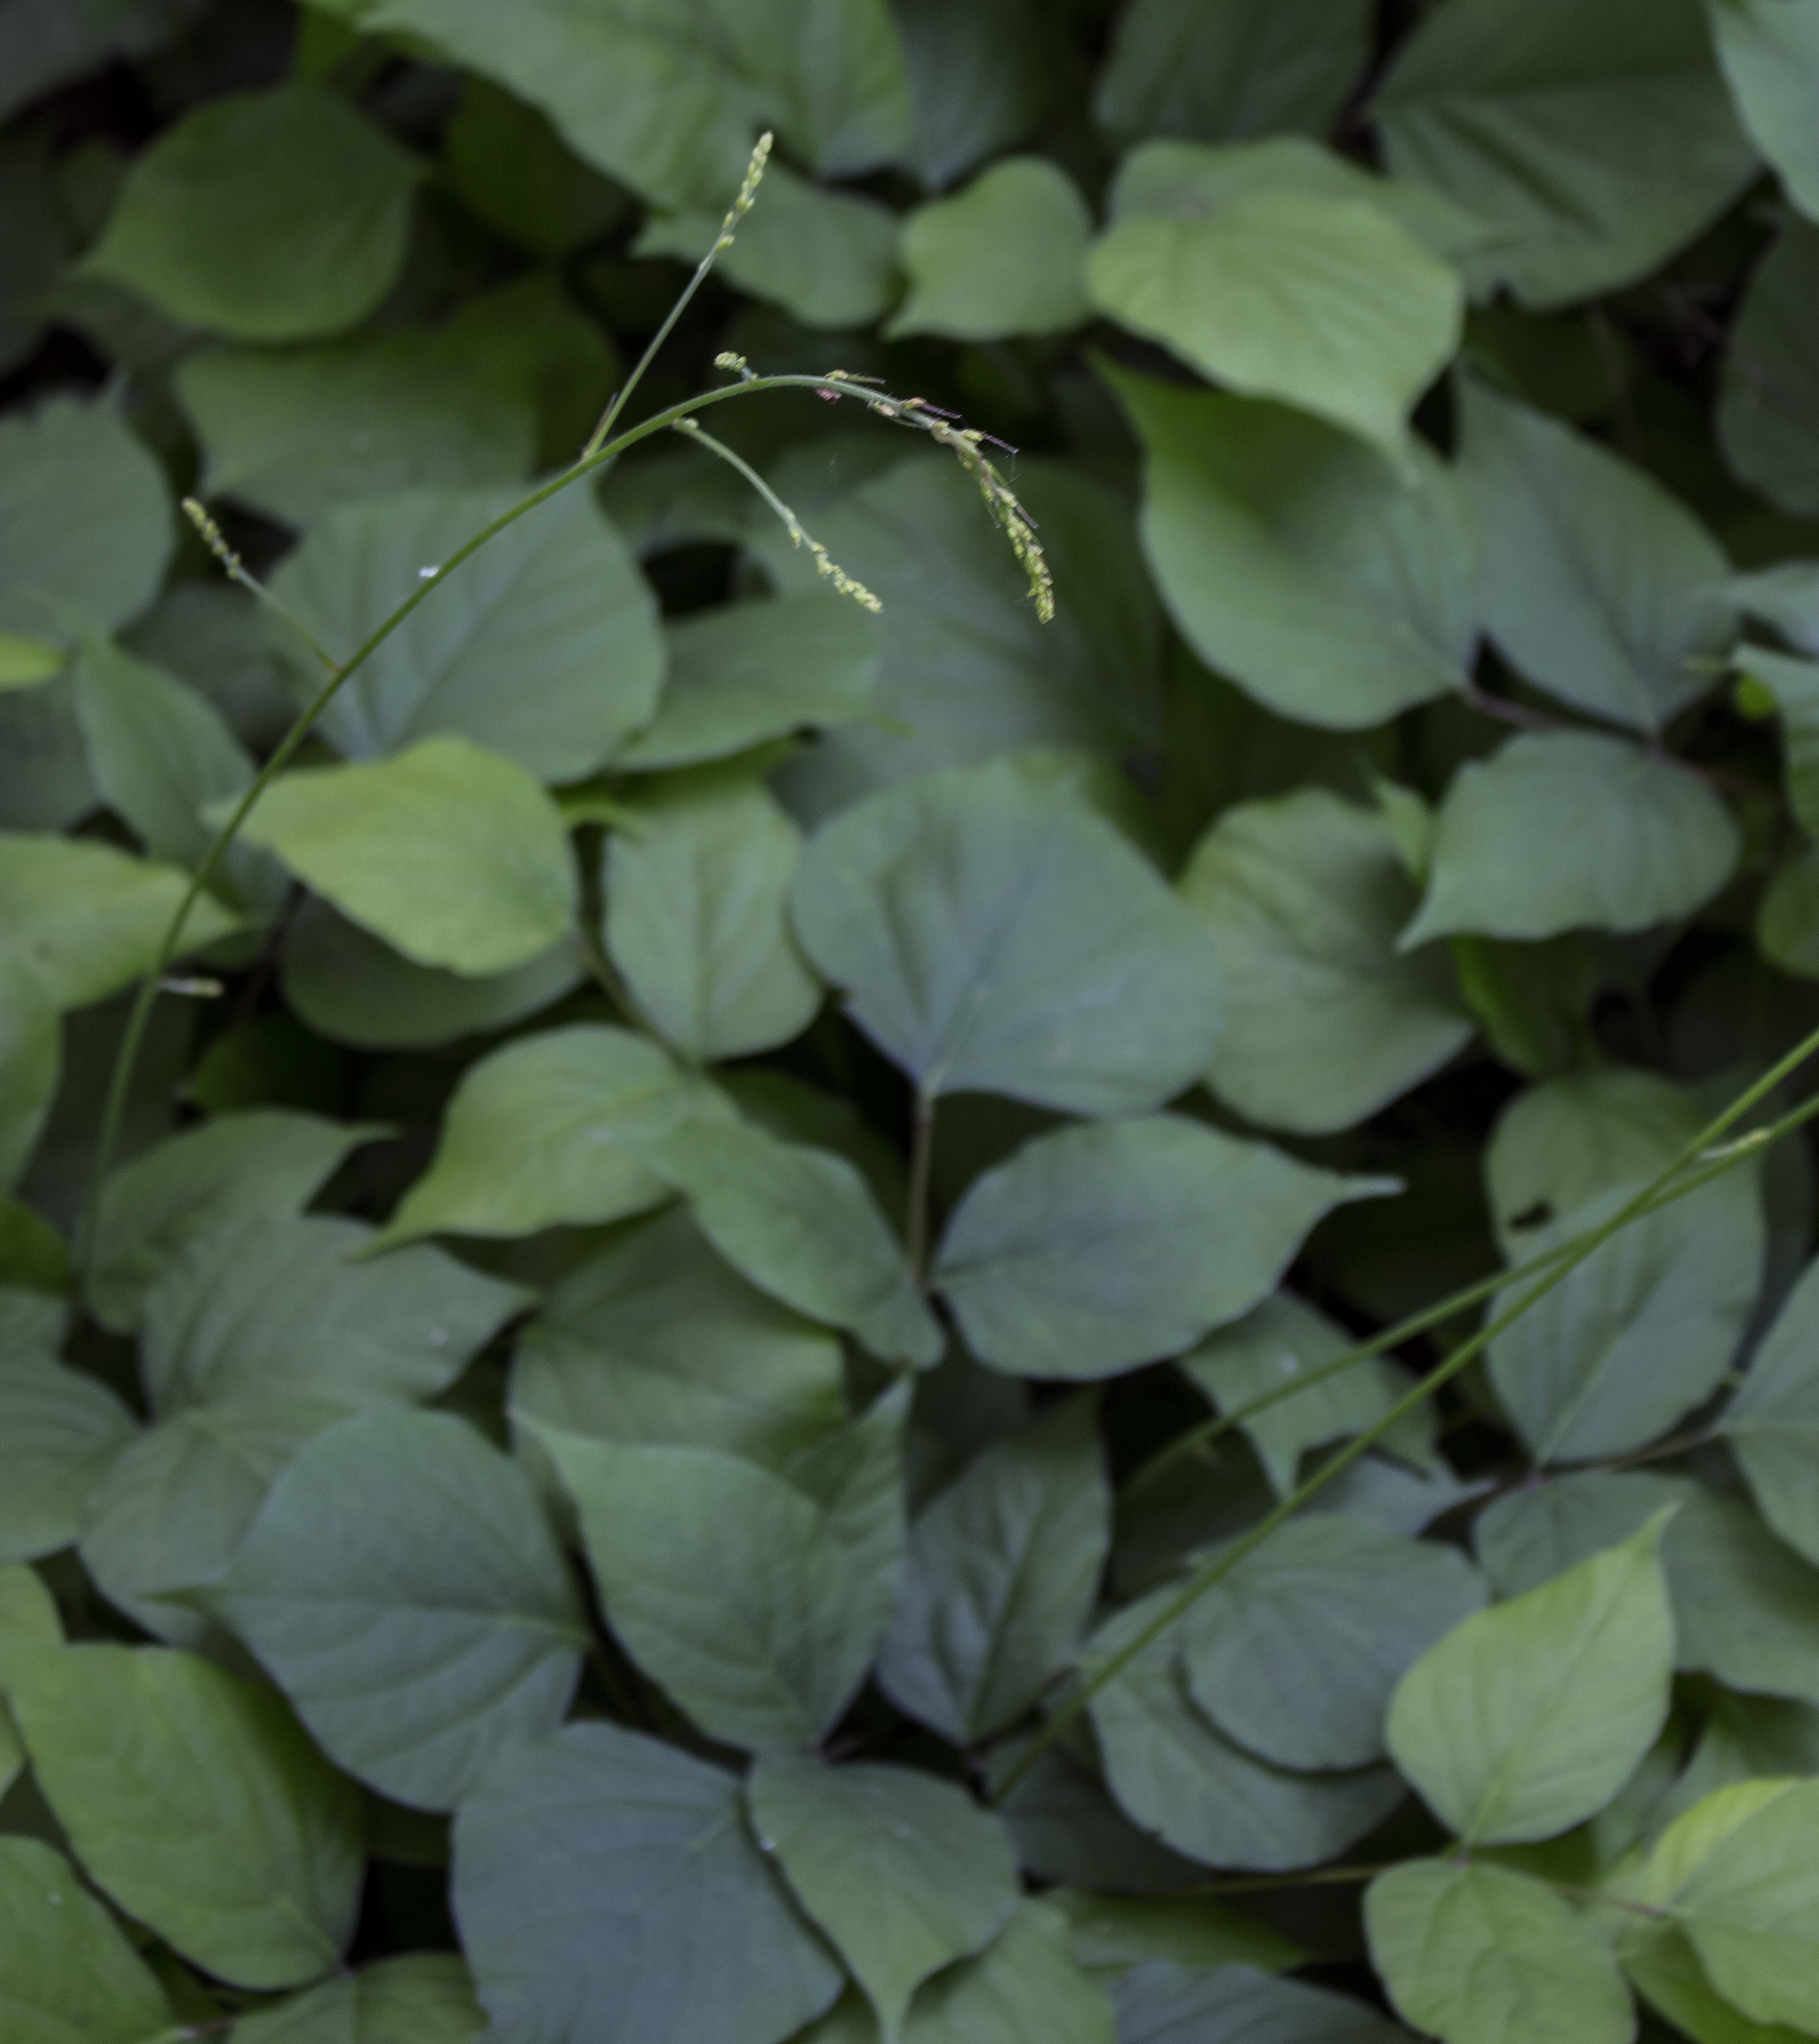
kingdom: Plantae
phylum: Tracheophyta
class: Magnoliopsida
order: Fabales
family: Fabaceae
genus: Hylodesmum
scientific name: Hylodesmum glutinosum
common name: Clustered-leaved tick-trefoil
